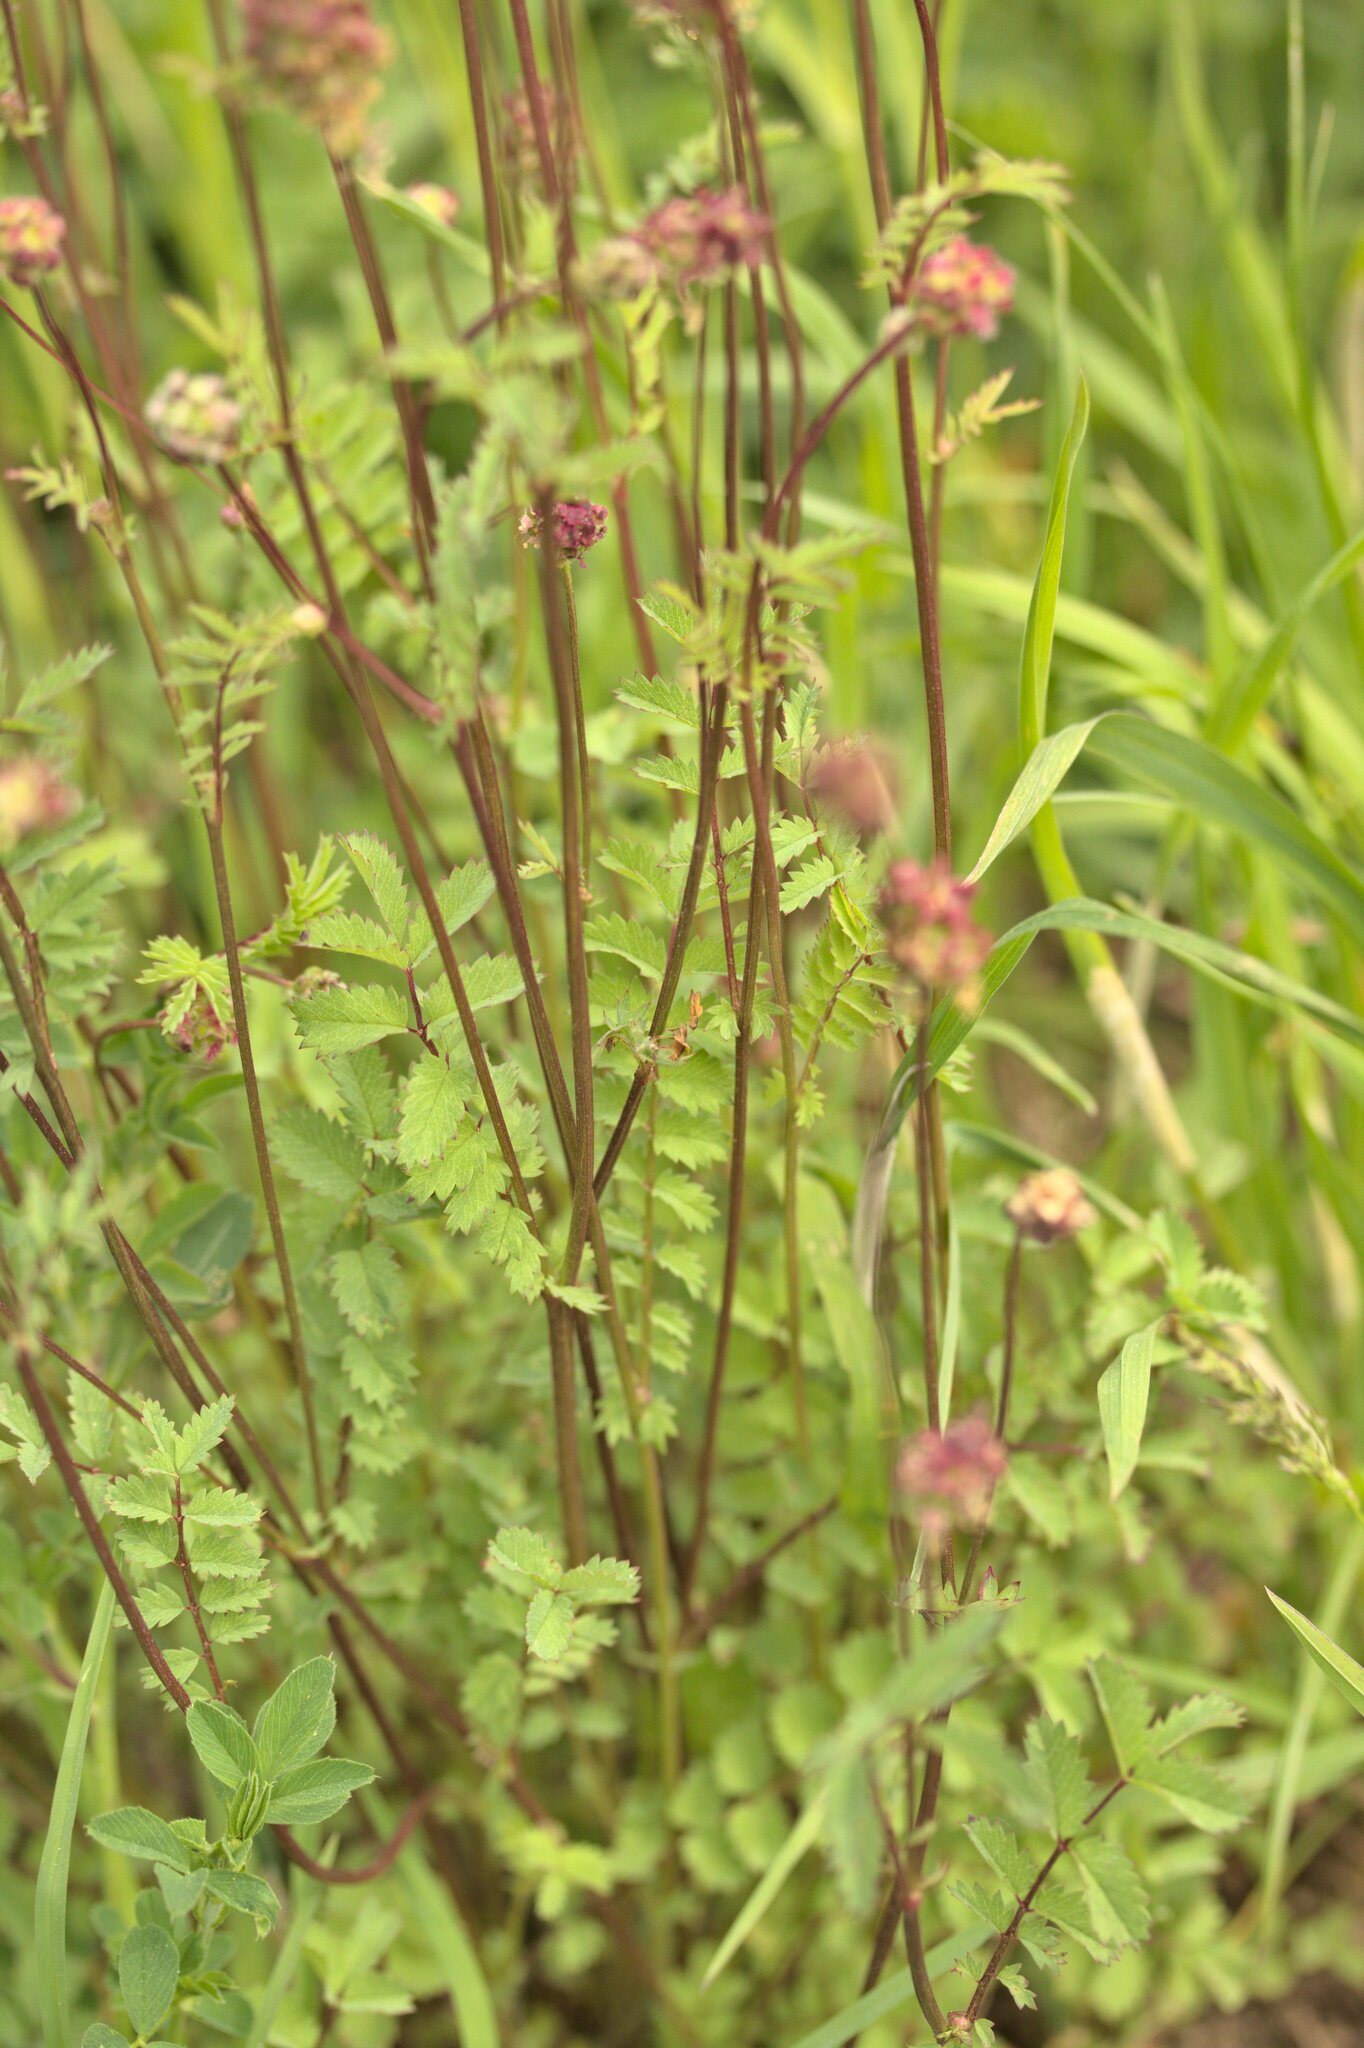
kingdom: Plantae
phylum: Tracheophyta
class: Magnoliopsida
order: Rosales
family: Rosaceae
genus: Poterium
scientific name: Poterium sanguisorba
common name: Salad burnet
